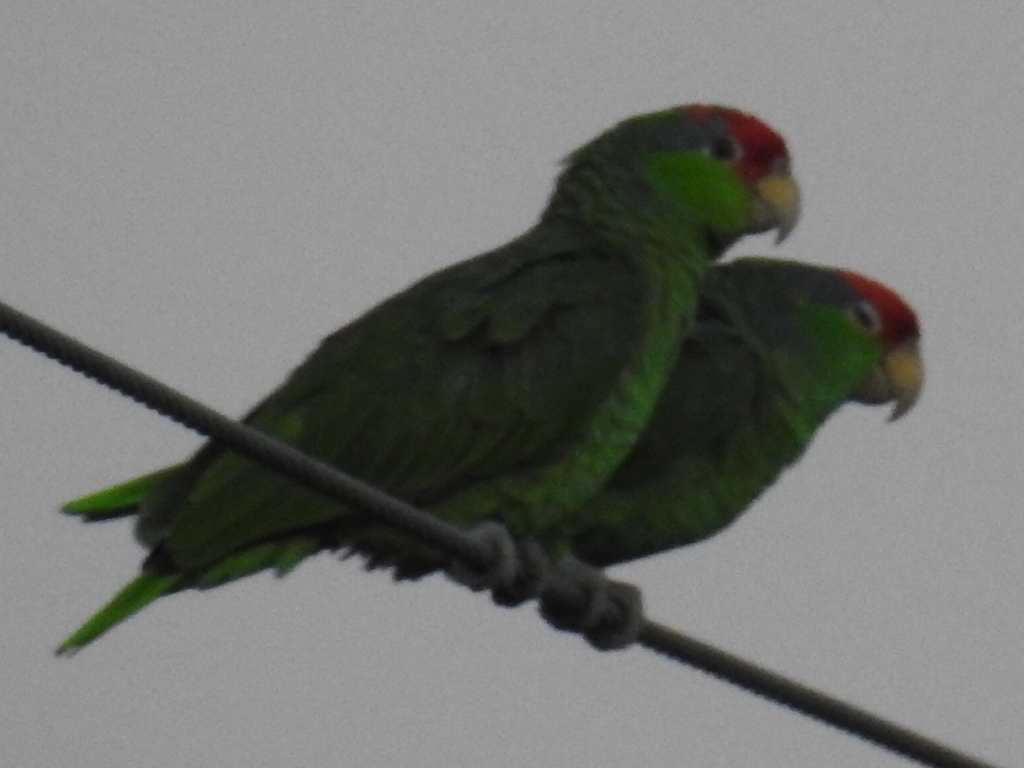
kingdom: Animalia
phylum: Chordata
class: Aves
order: Psittaciformes
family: Psittacidae
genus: Amazona
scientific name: Amazona viridigenalis
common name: Red-crowned amazon
